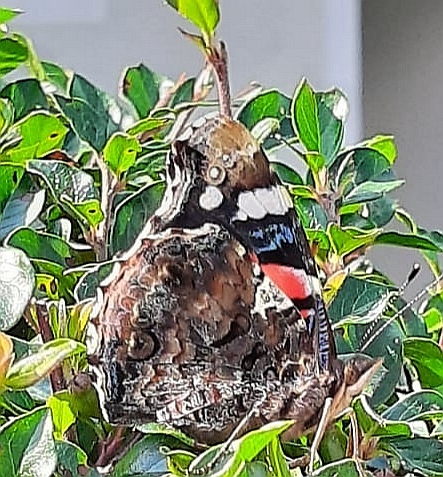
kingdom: Animalia
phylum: Arthropoda
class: Insecta
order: Lepidoptera
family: Nymphalidae
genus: Vanessa
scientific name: Vanessa atalanta
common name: Red admiral
